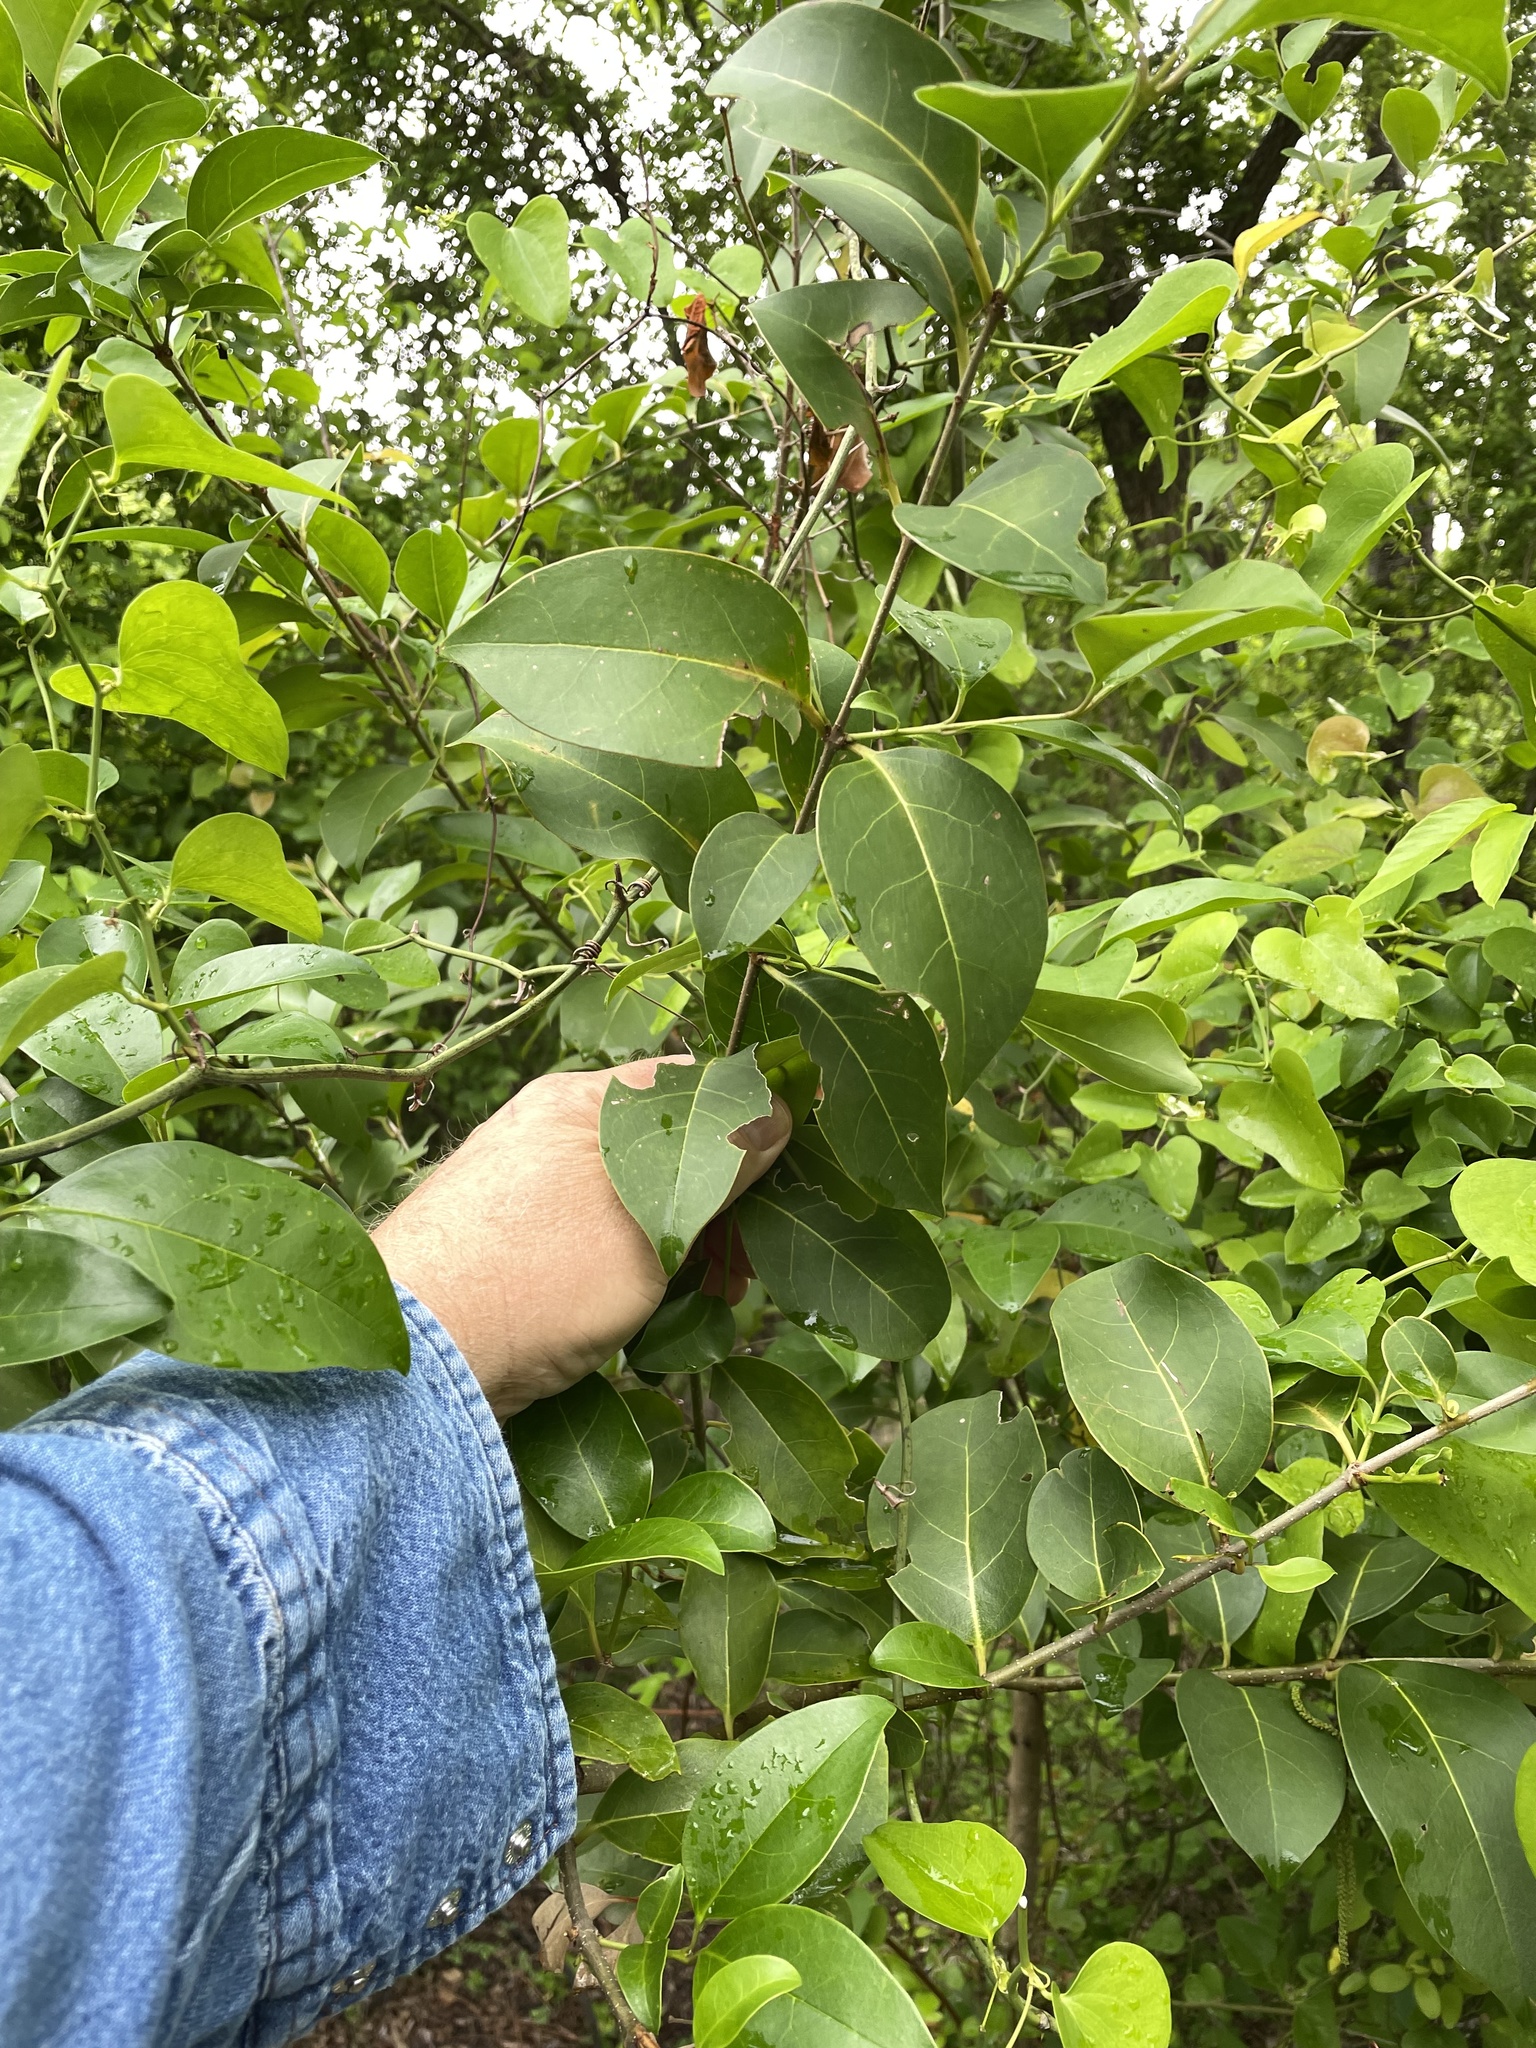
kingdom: Plantae
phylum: Tracheophyta
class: Magnoliopsida
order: Lamiales
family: Oleaceae
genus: Ligustrum
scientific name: Ligustrum lucidum
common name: Glossy privet
